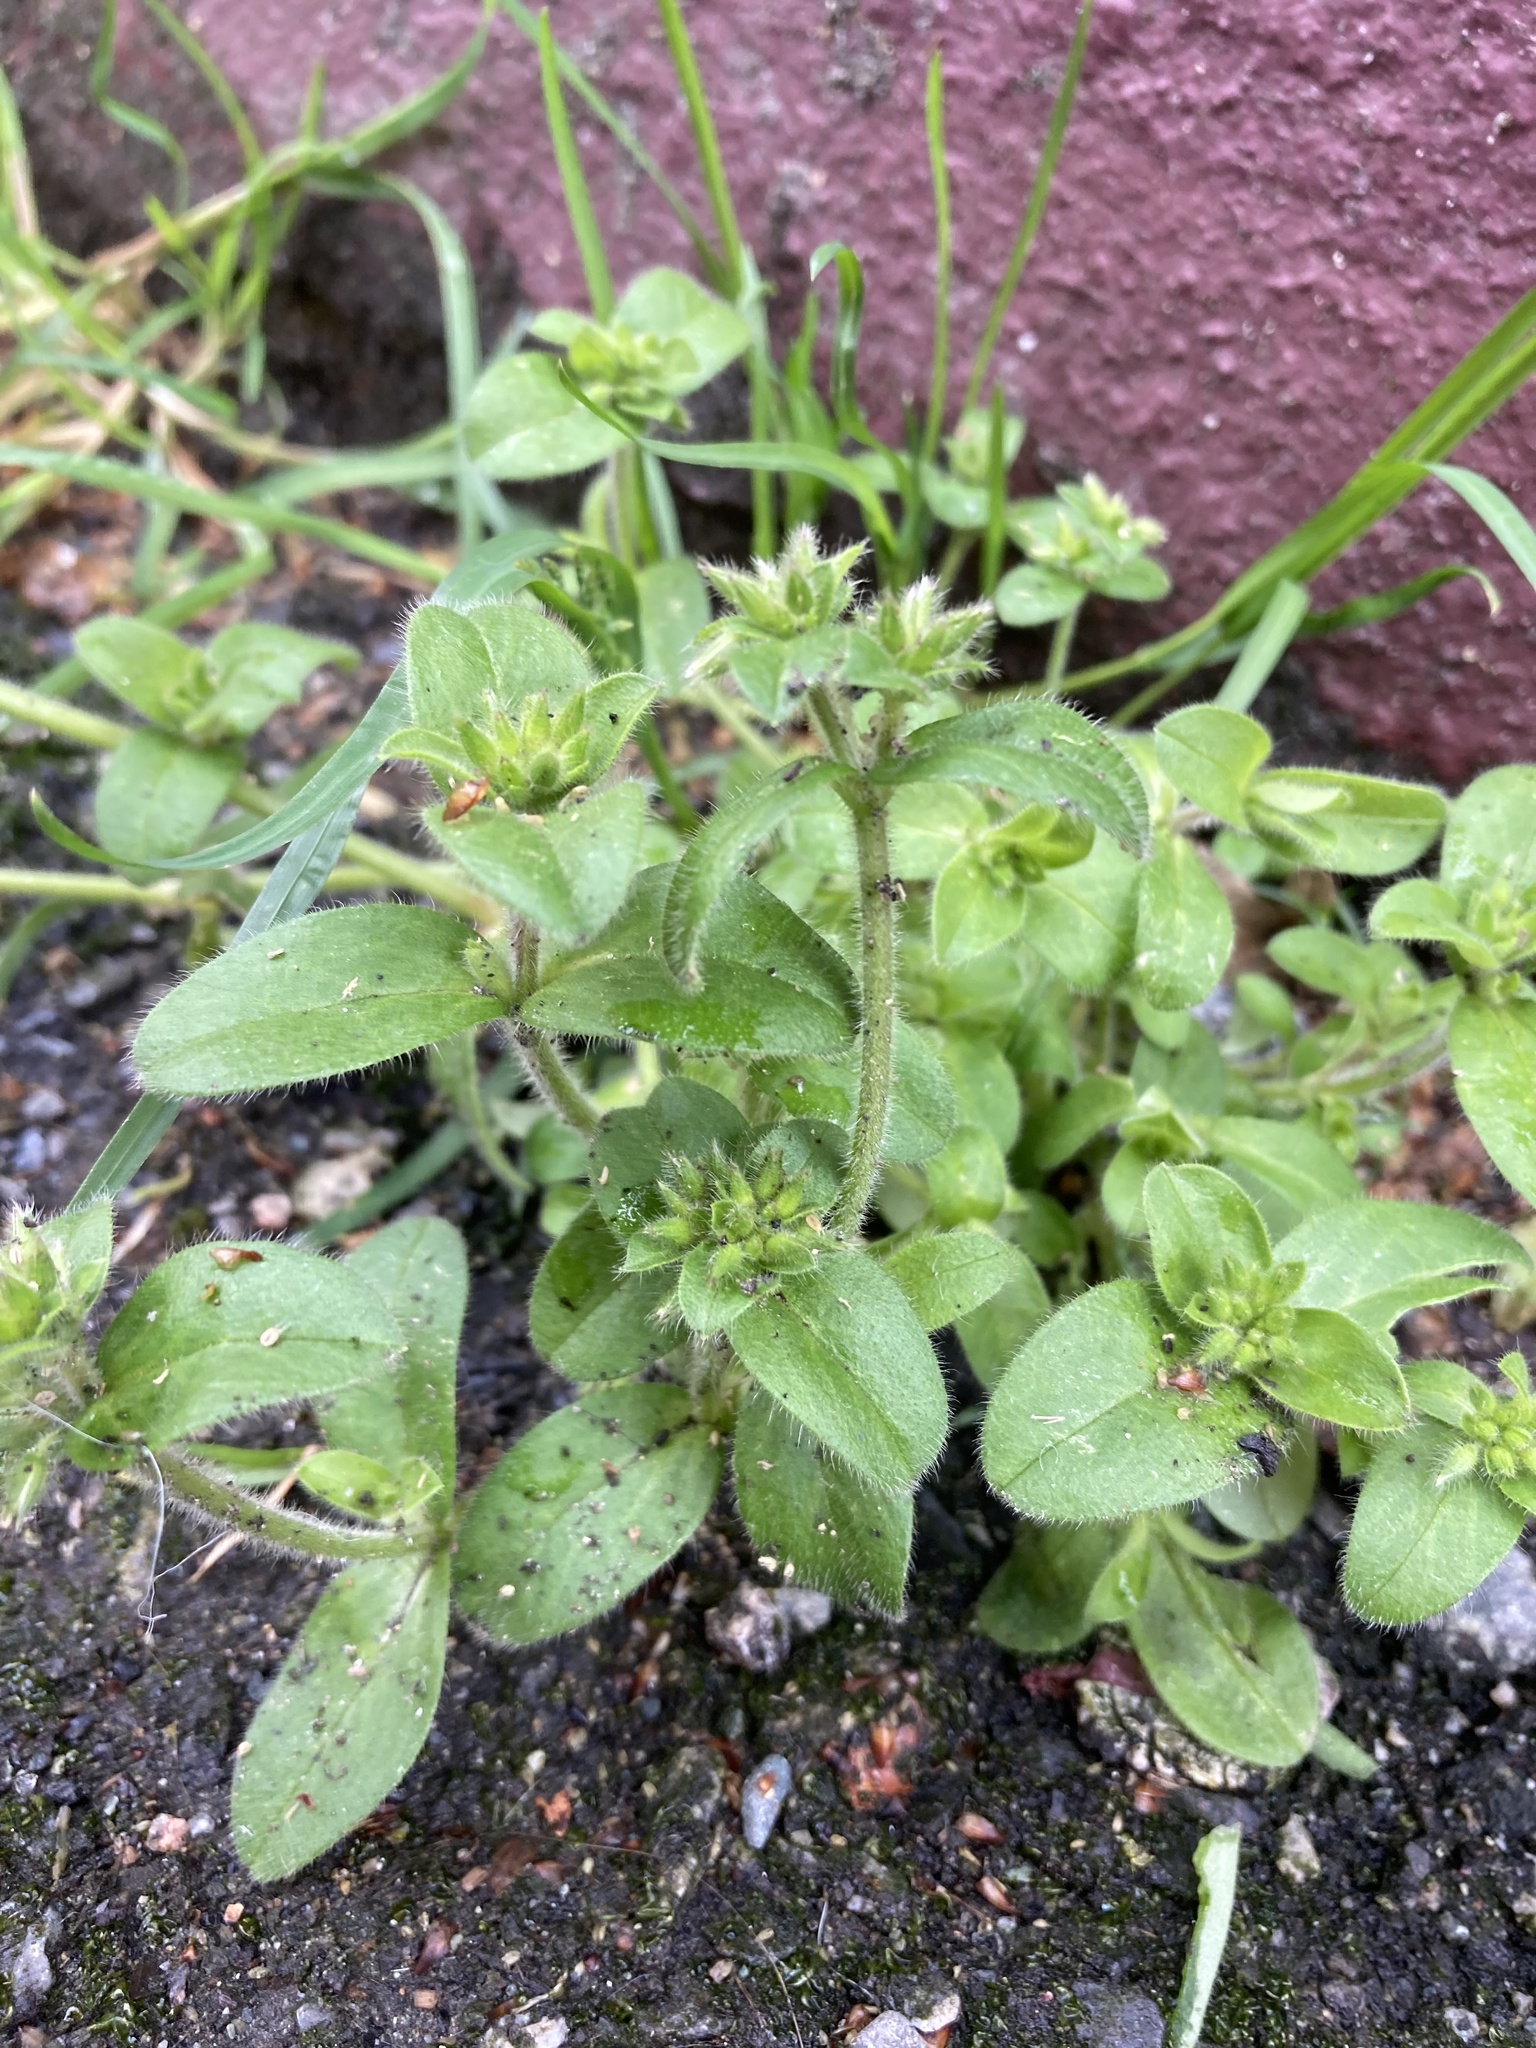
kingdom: Plantae
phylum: Tracheophyta
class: Magnoliopsida
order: Caryophyllales
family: Caryophyllaceae
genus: Cerastium
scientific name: Cerastium glomeratum
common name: Sticky chickweed
